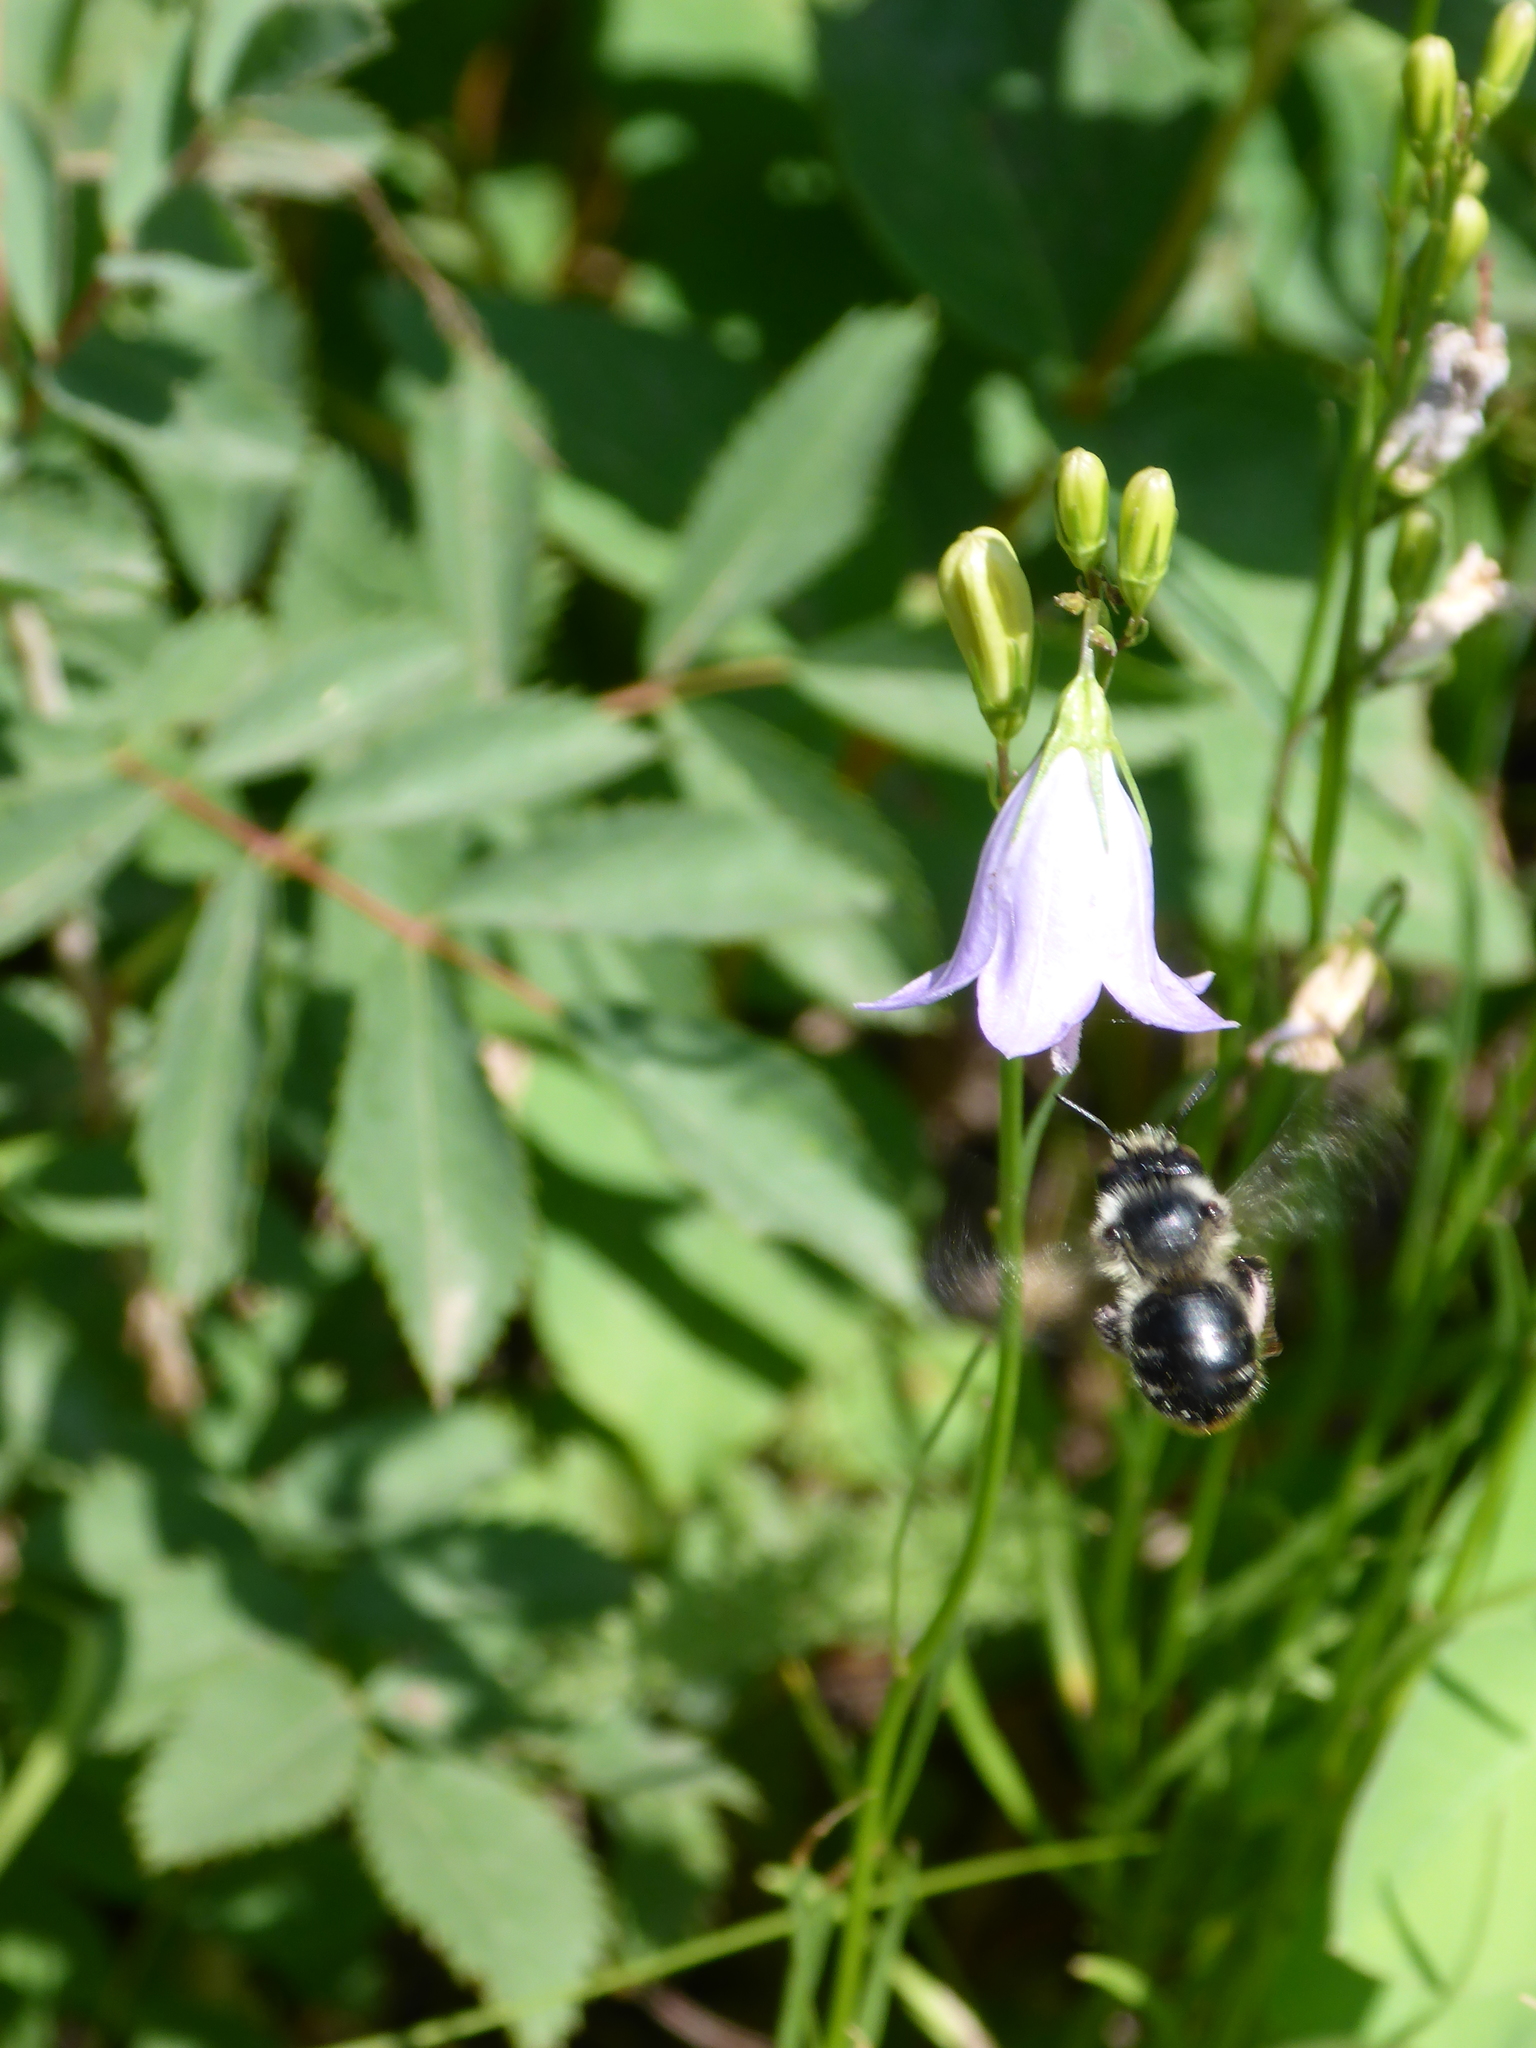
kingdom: Animalia
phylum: Arthropoda
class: Insecta
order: Hymenoptera
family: Apidae
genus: Anthophora
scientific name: Anthophora terminalis
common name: Orange-tipped wood-digger bee
